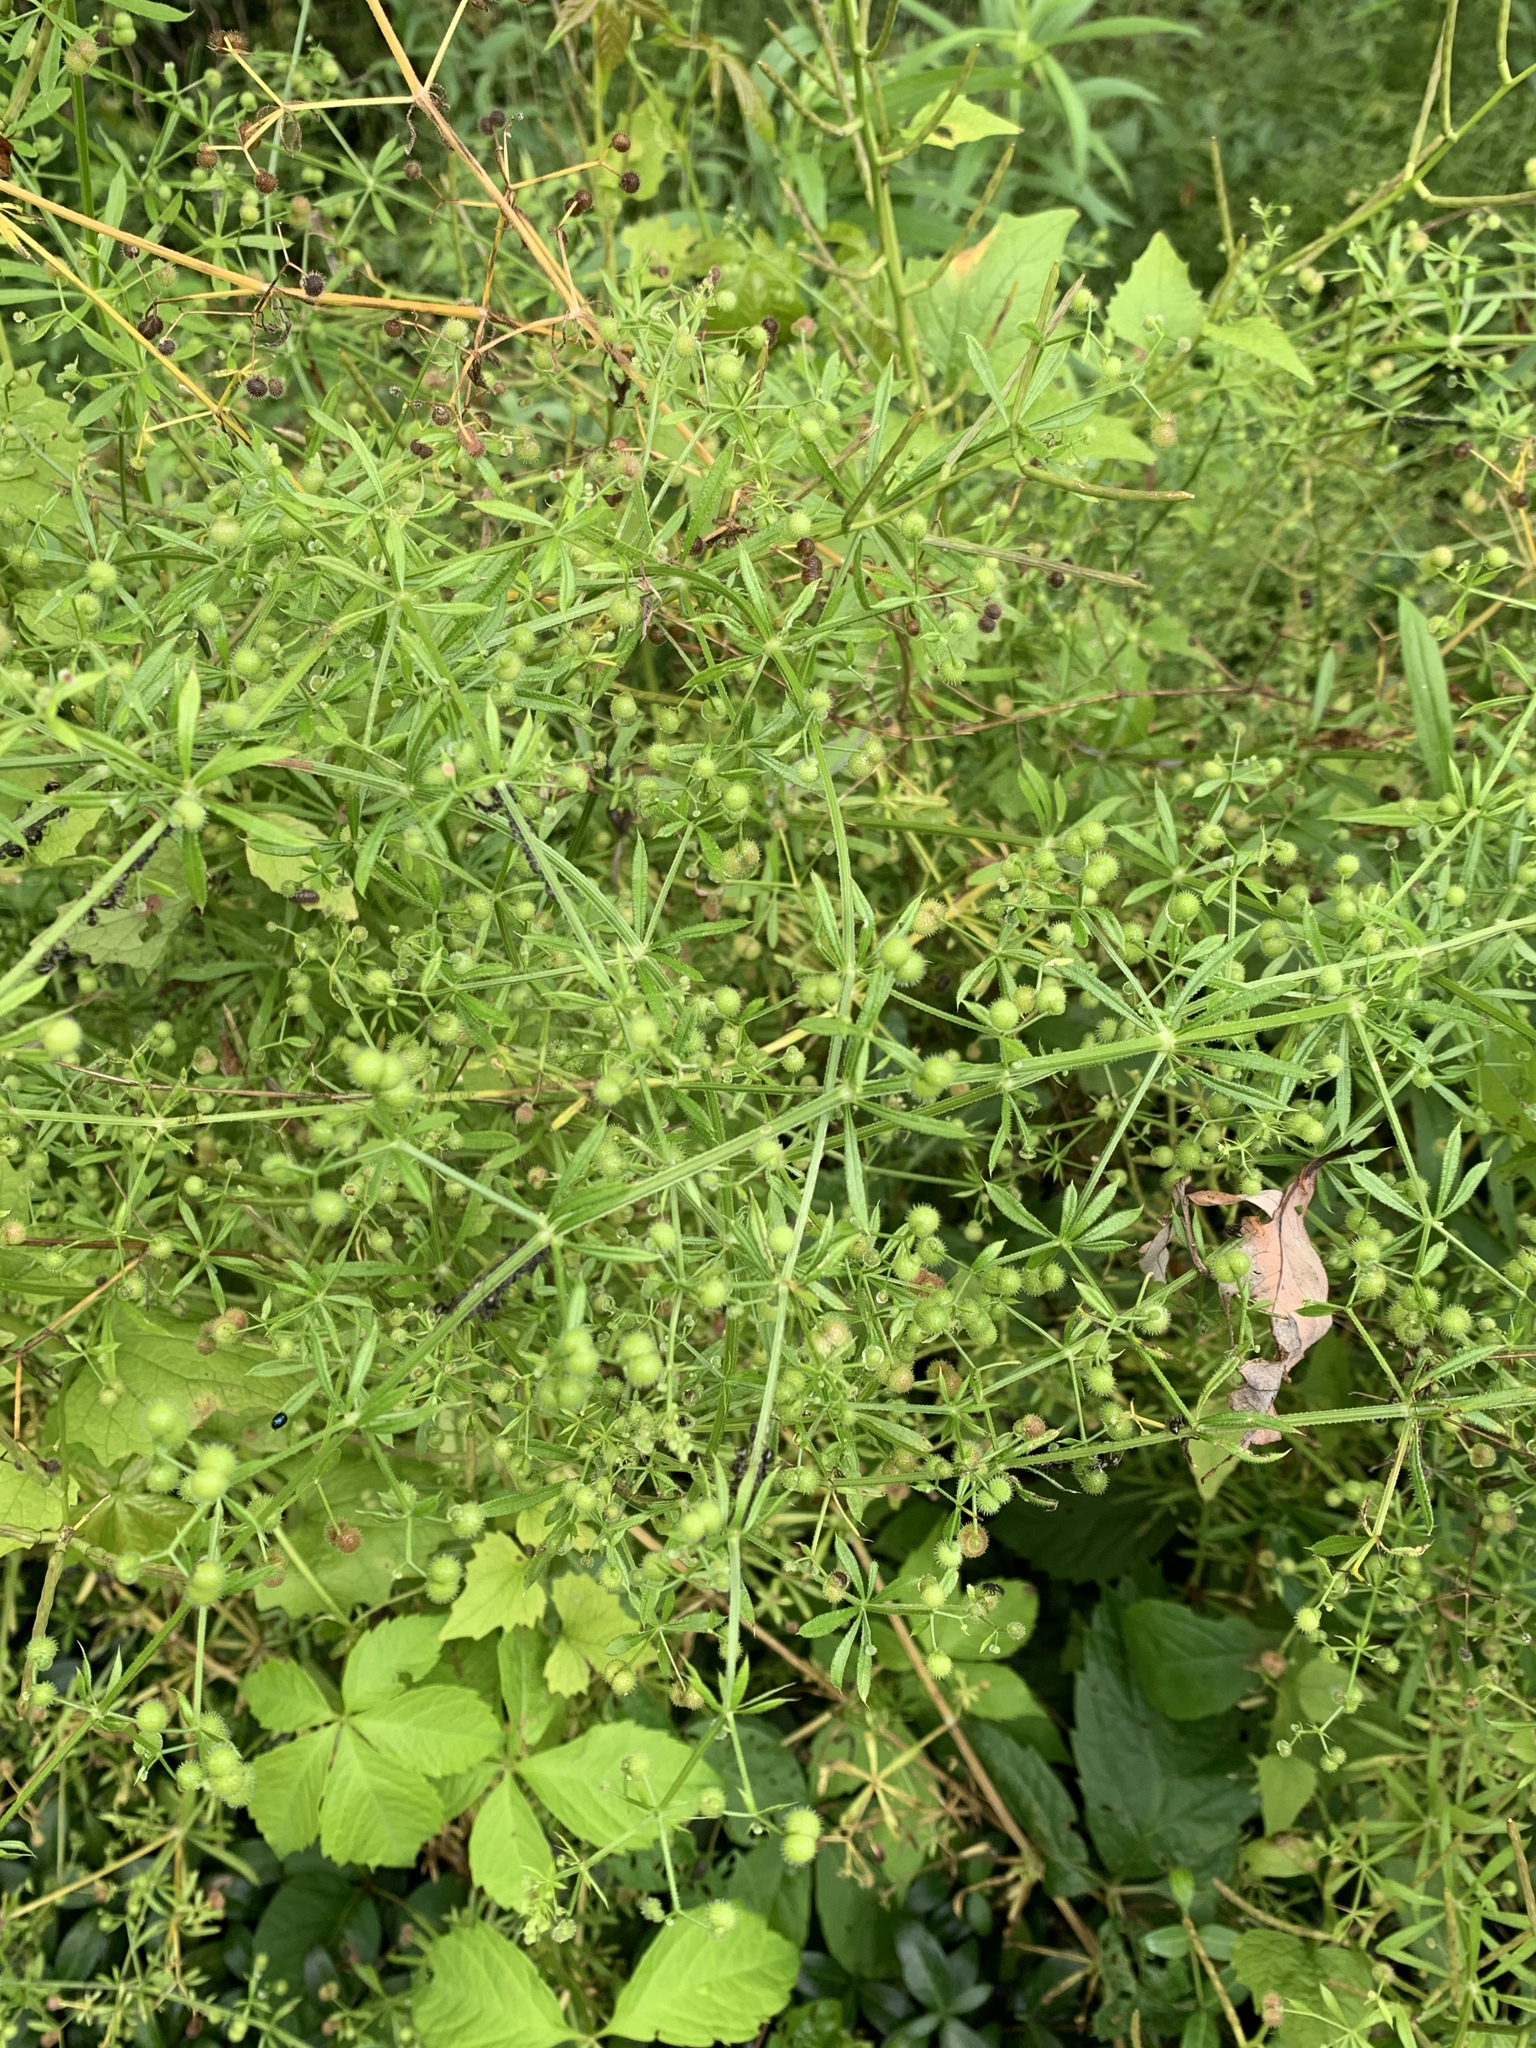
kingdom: Plantae
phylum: Tracheophyta
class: Magnoliopsida
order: Gentianales
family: Rubiaceae
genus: Galium
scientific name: Galium aparine
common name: Cleavers
